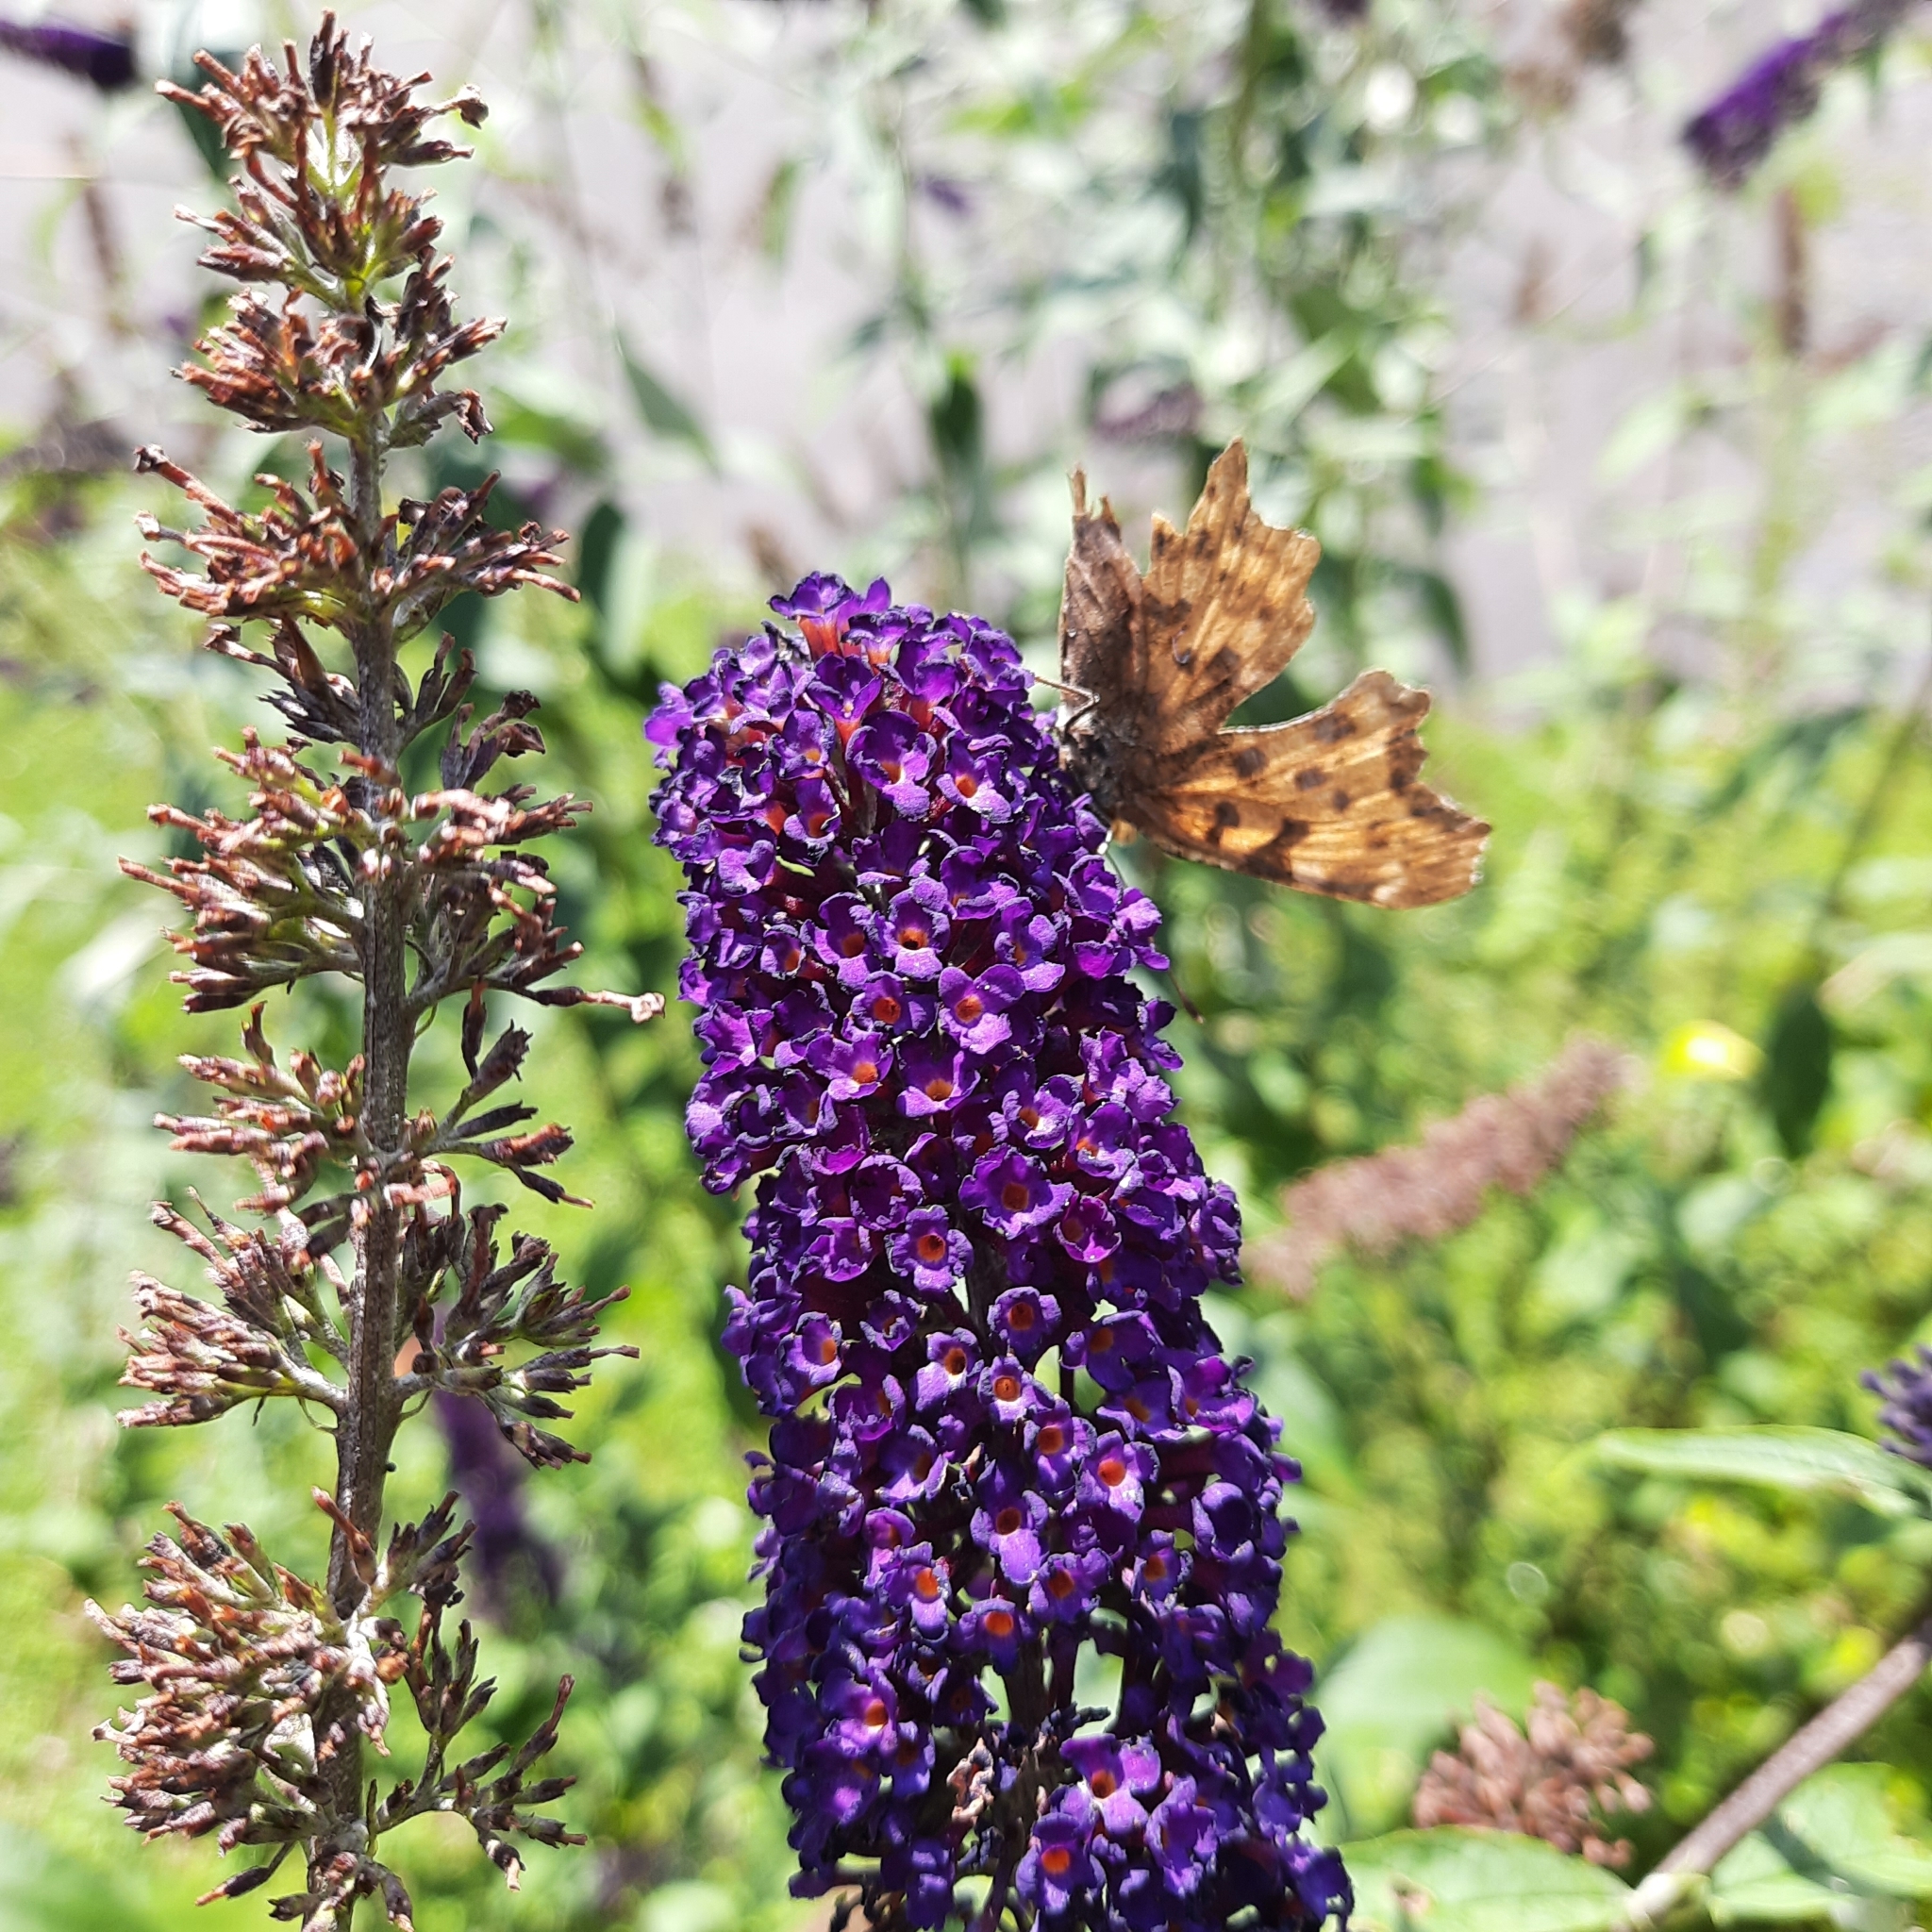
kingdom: Animalia
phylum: Arthropoda
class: Insecta
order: Lepidoptera
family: Nymphalidae
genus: Polygonia
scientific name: Polygonia c-album
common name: Comma
